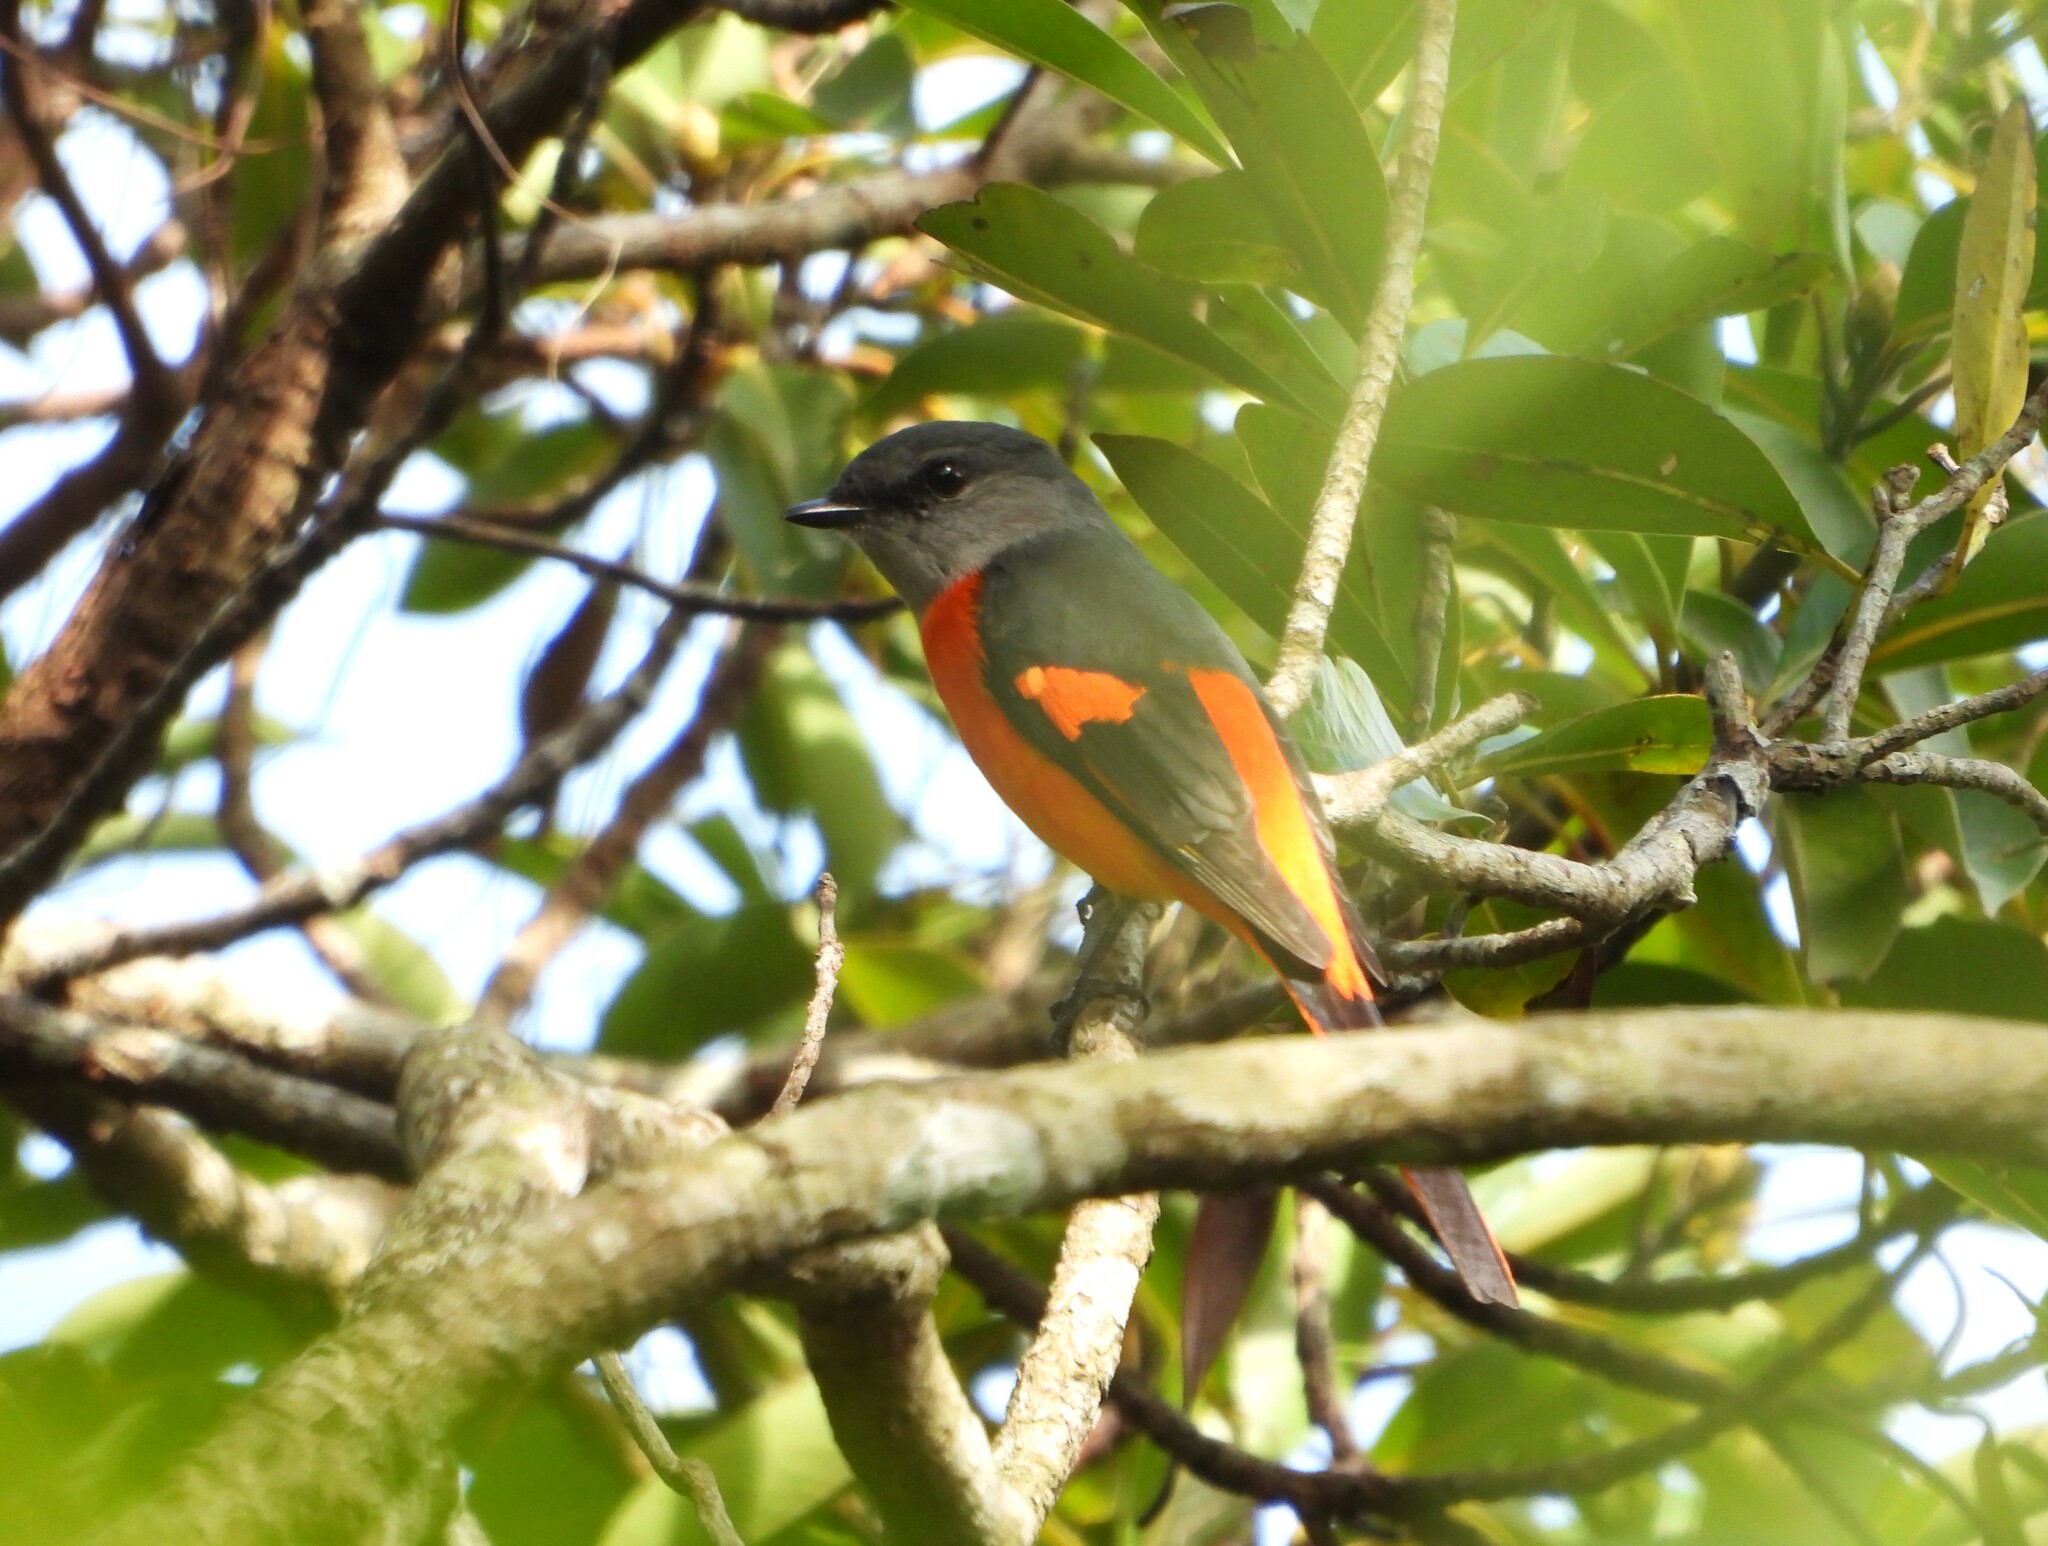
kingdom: Animalia
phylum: Chordata
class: Aves
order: Passeriformes
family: Campephagidae
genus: Pericrocotus
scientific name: Pericrocotus solaris
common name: Grey-chinned minivet
